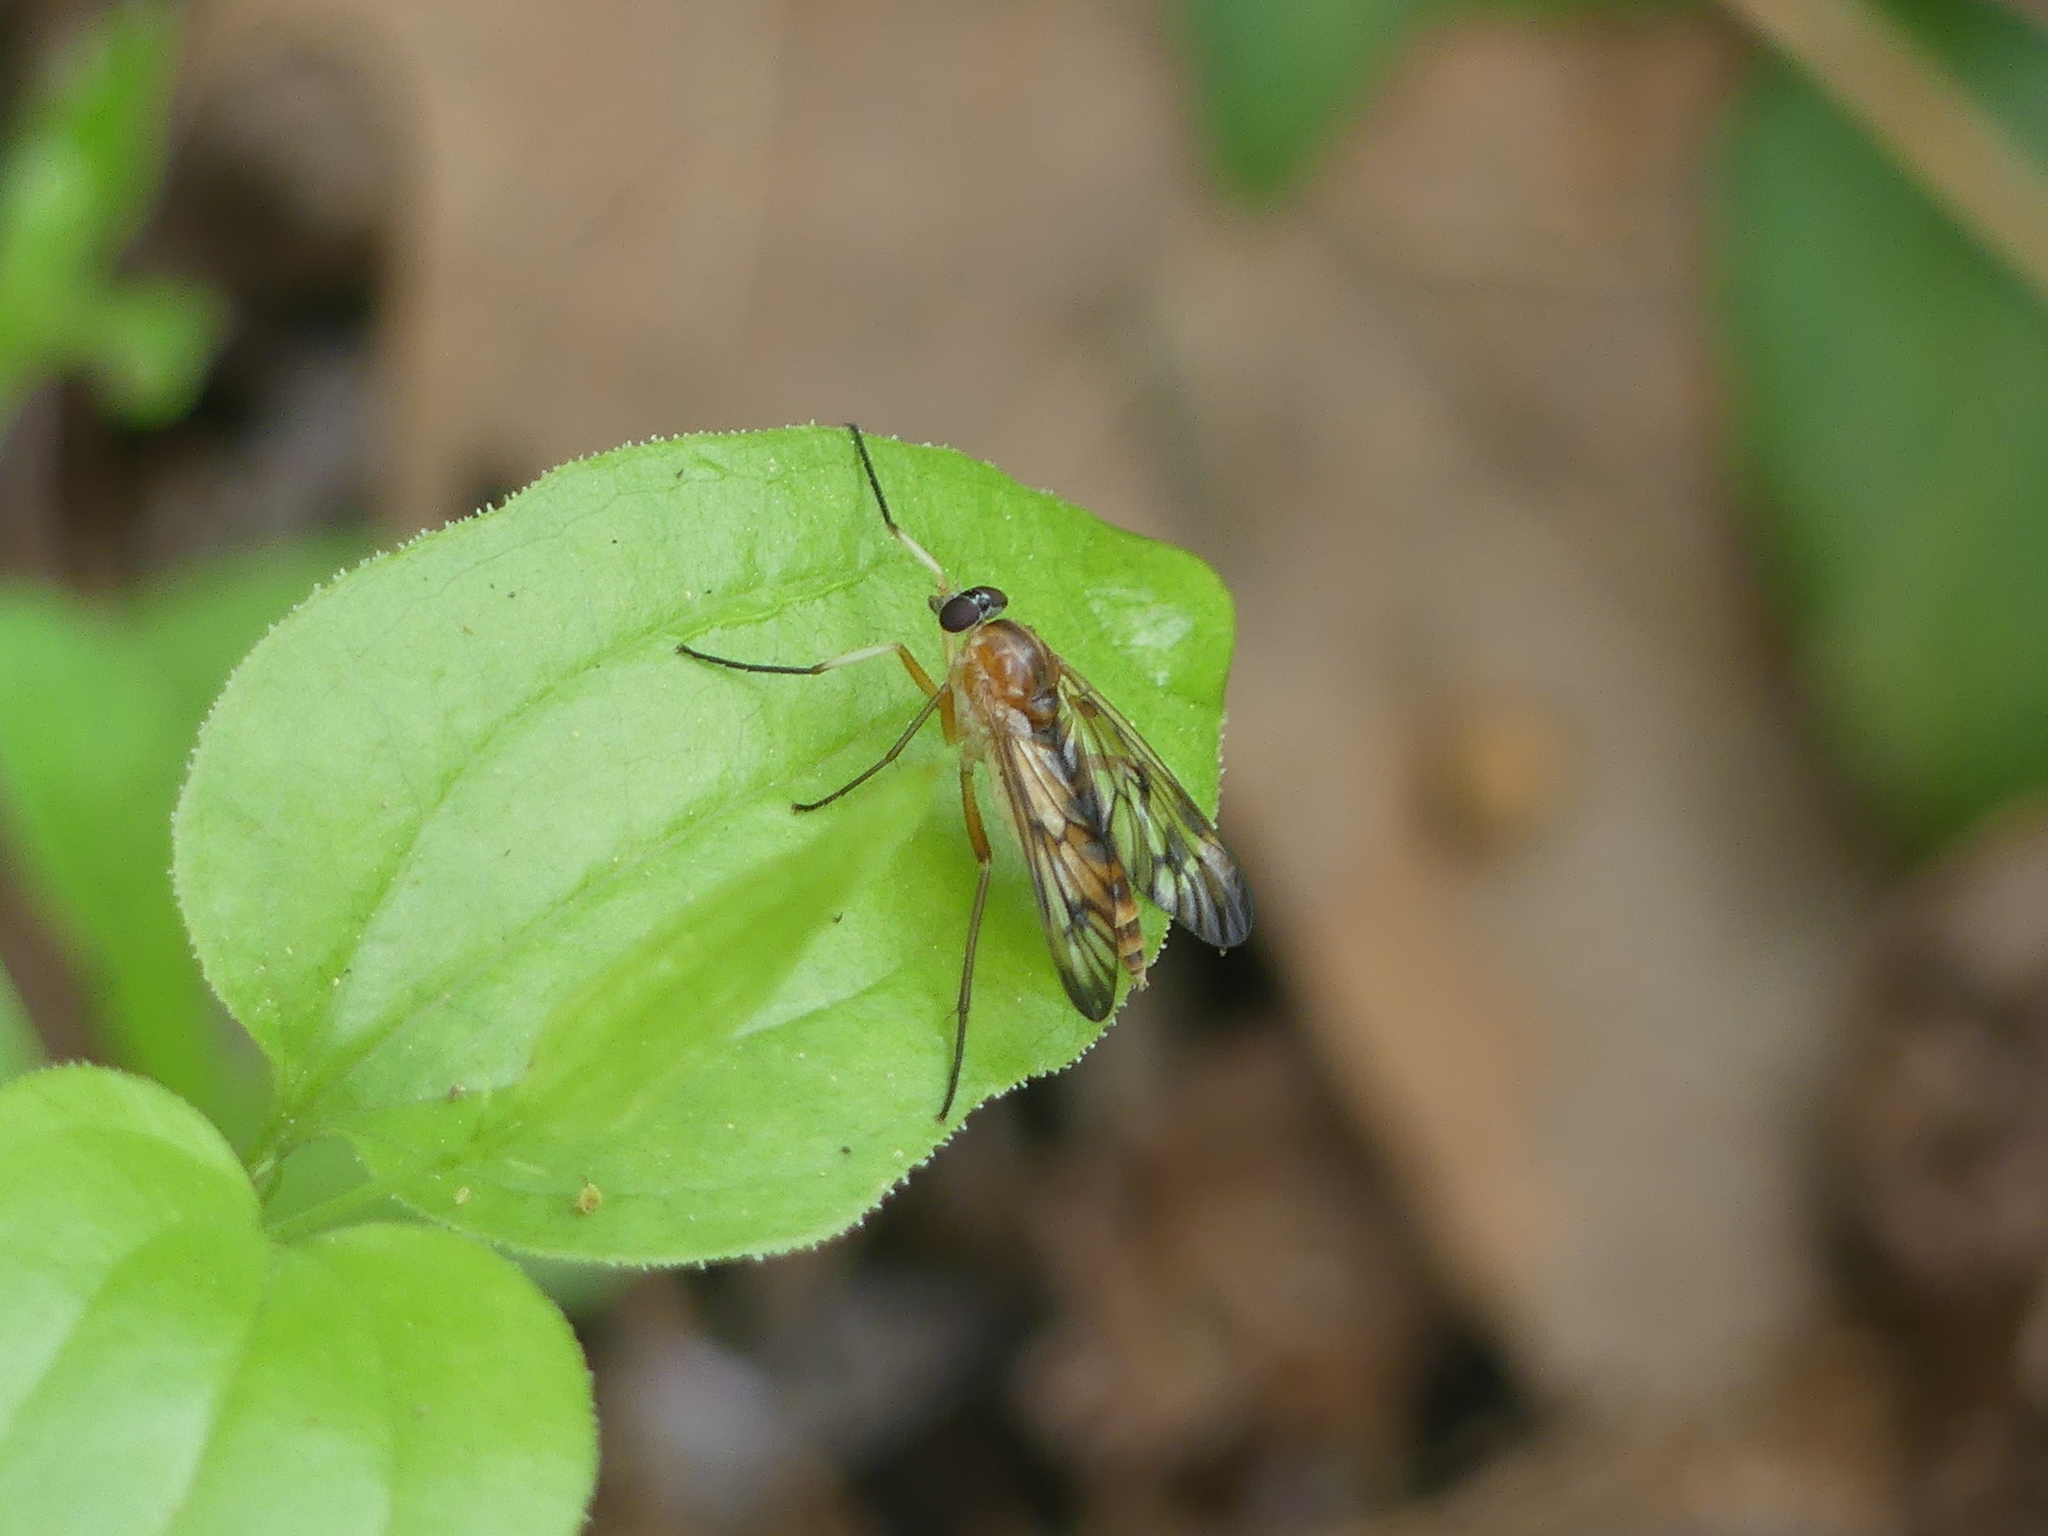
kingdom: Animalia
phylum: Arthropoda
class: Insecta
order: Diptera
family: Rhagionidae
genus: Rhagio
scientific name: Rhagio albicornis
